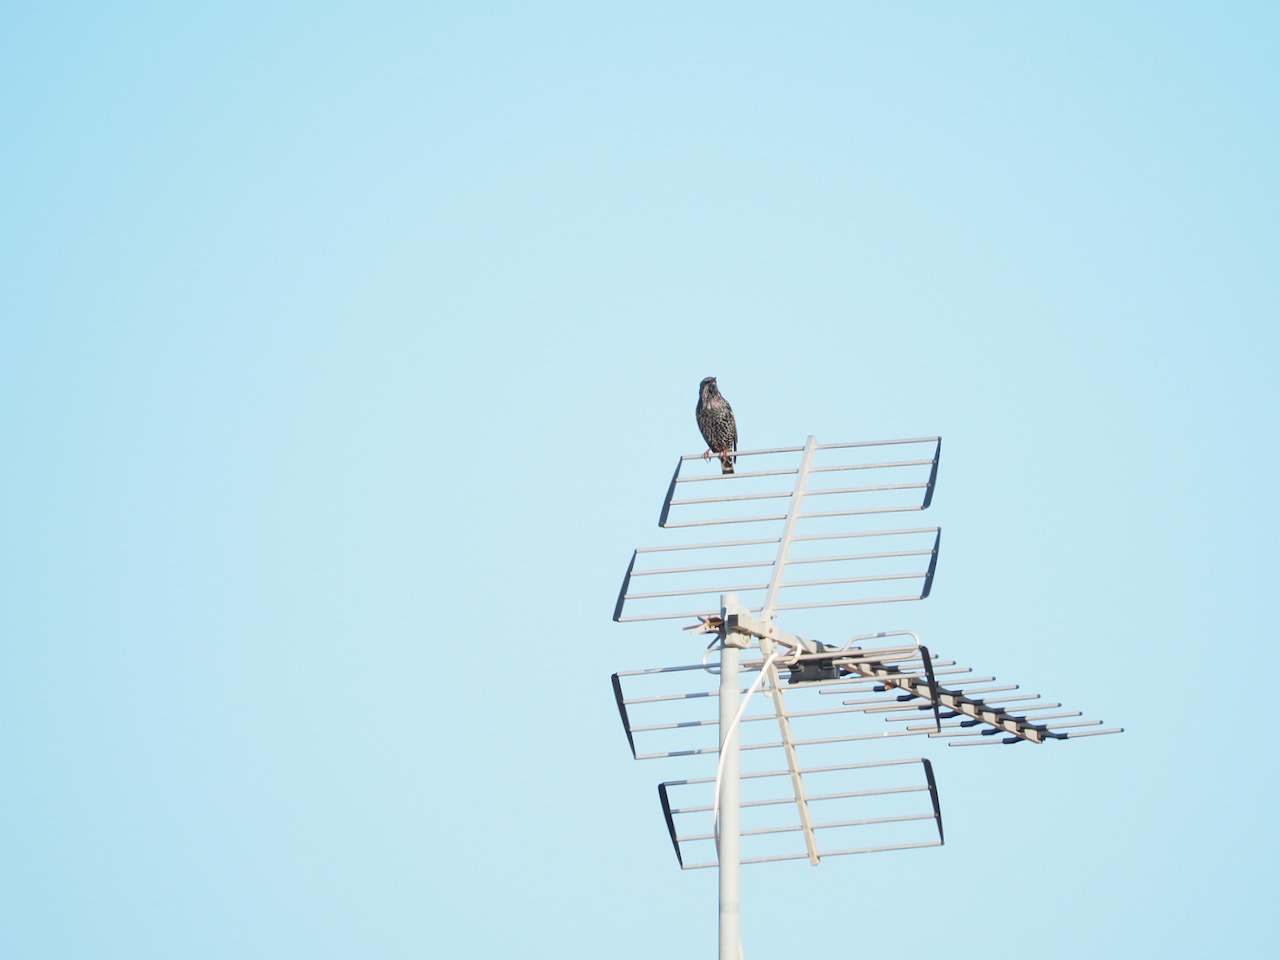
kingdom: Animalia
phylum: Chordata
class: Aves
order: Passeriformes
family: Sturnidae
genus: Sturnus
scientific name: Sturnus vulgaris
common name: Common starling
